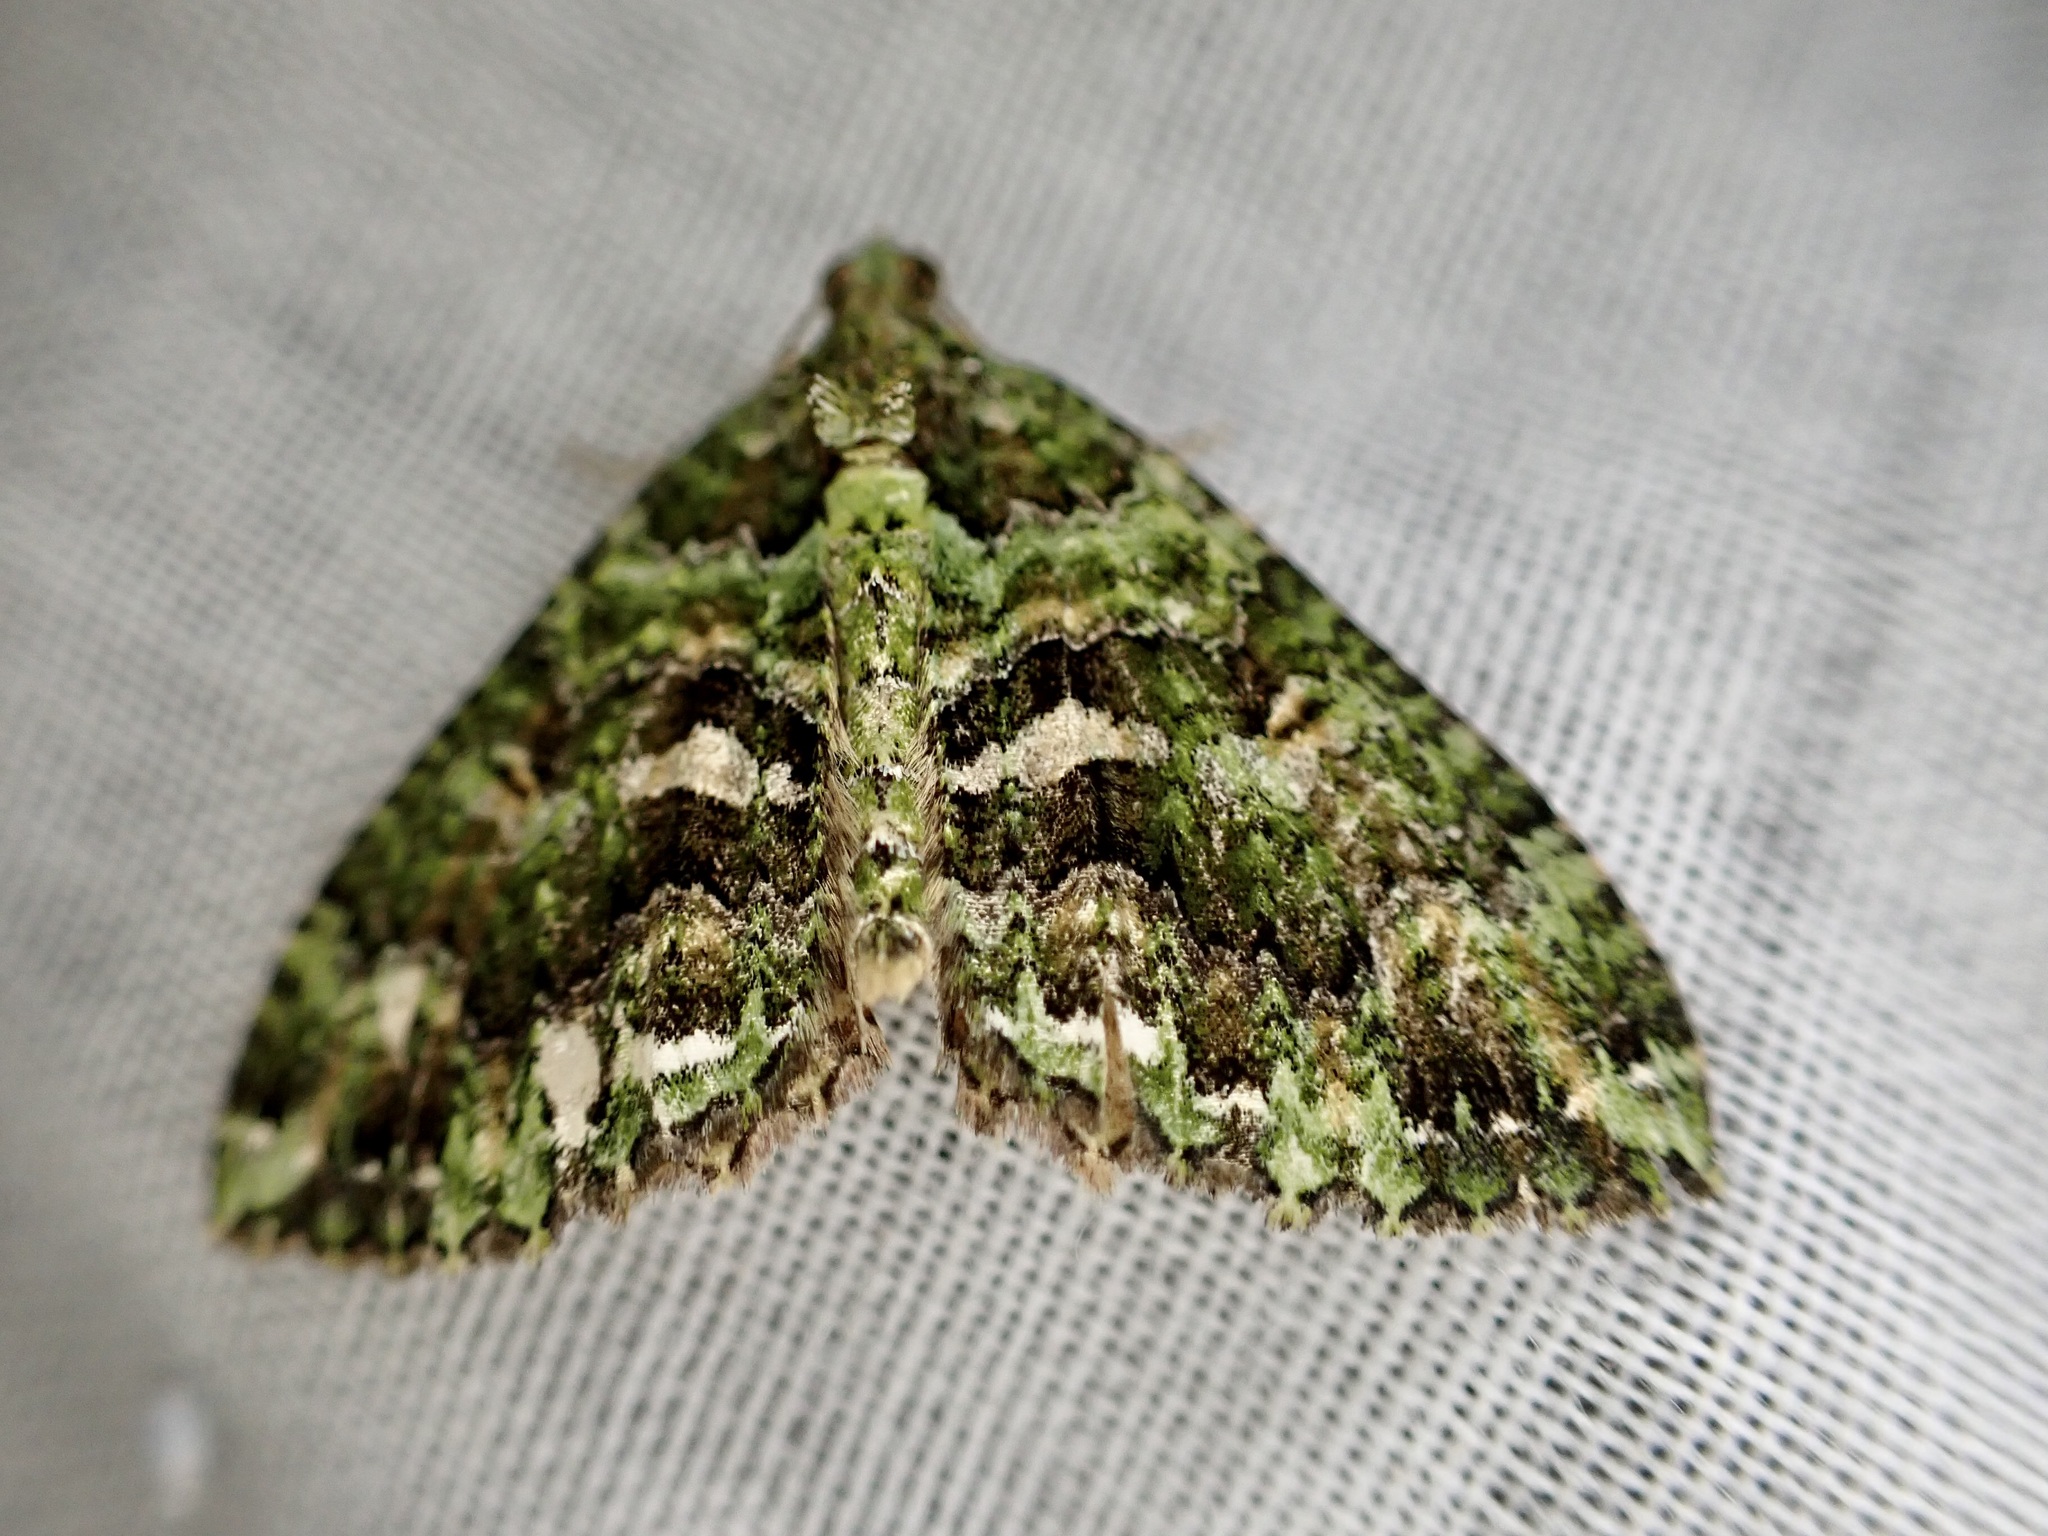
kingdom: Animalia
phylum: Arthropoda
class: Insecta
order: Lepidoptera
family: Geometridae
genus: Austrocidaria
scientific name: Austrocidaria similata
